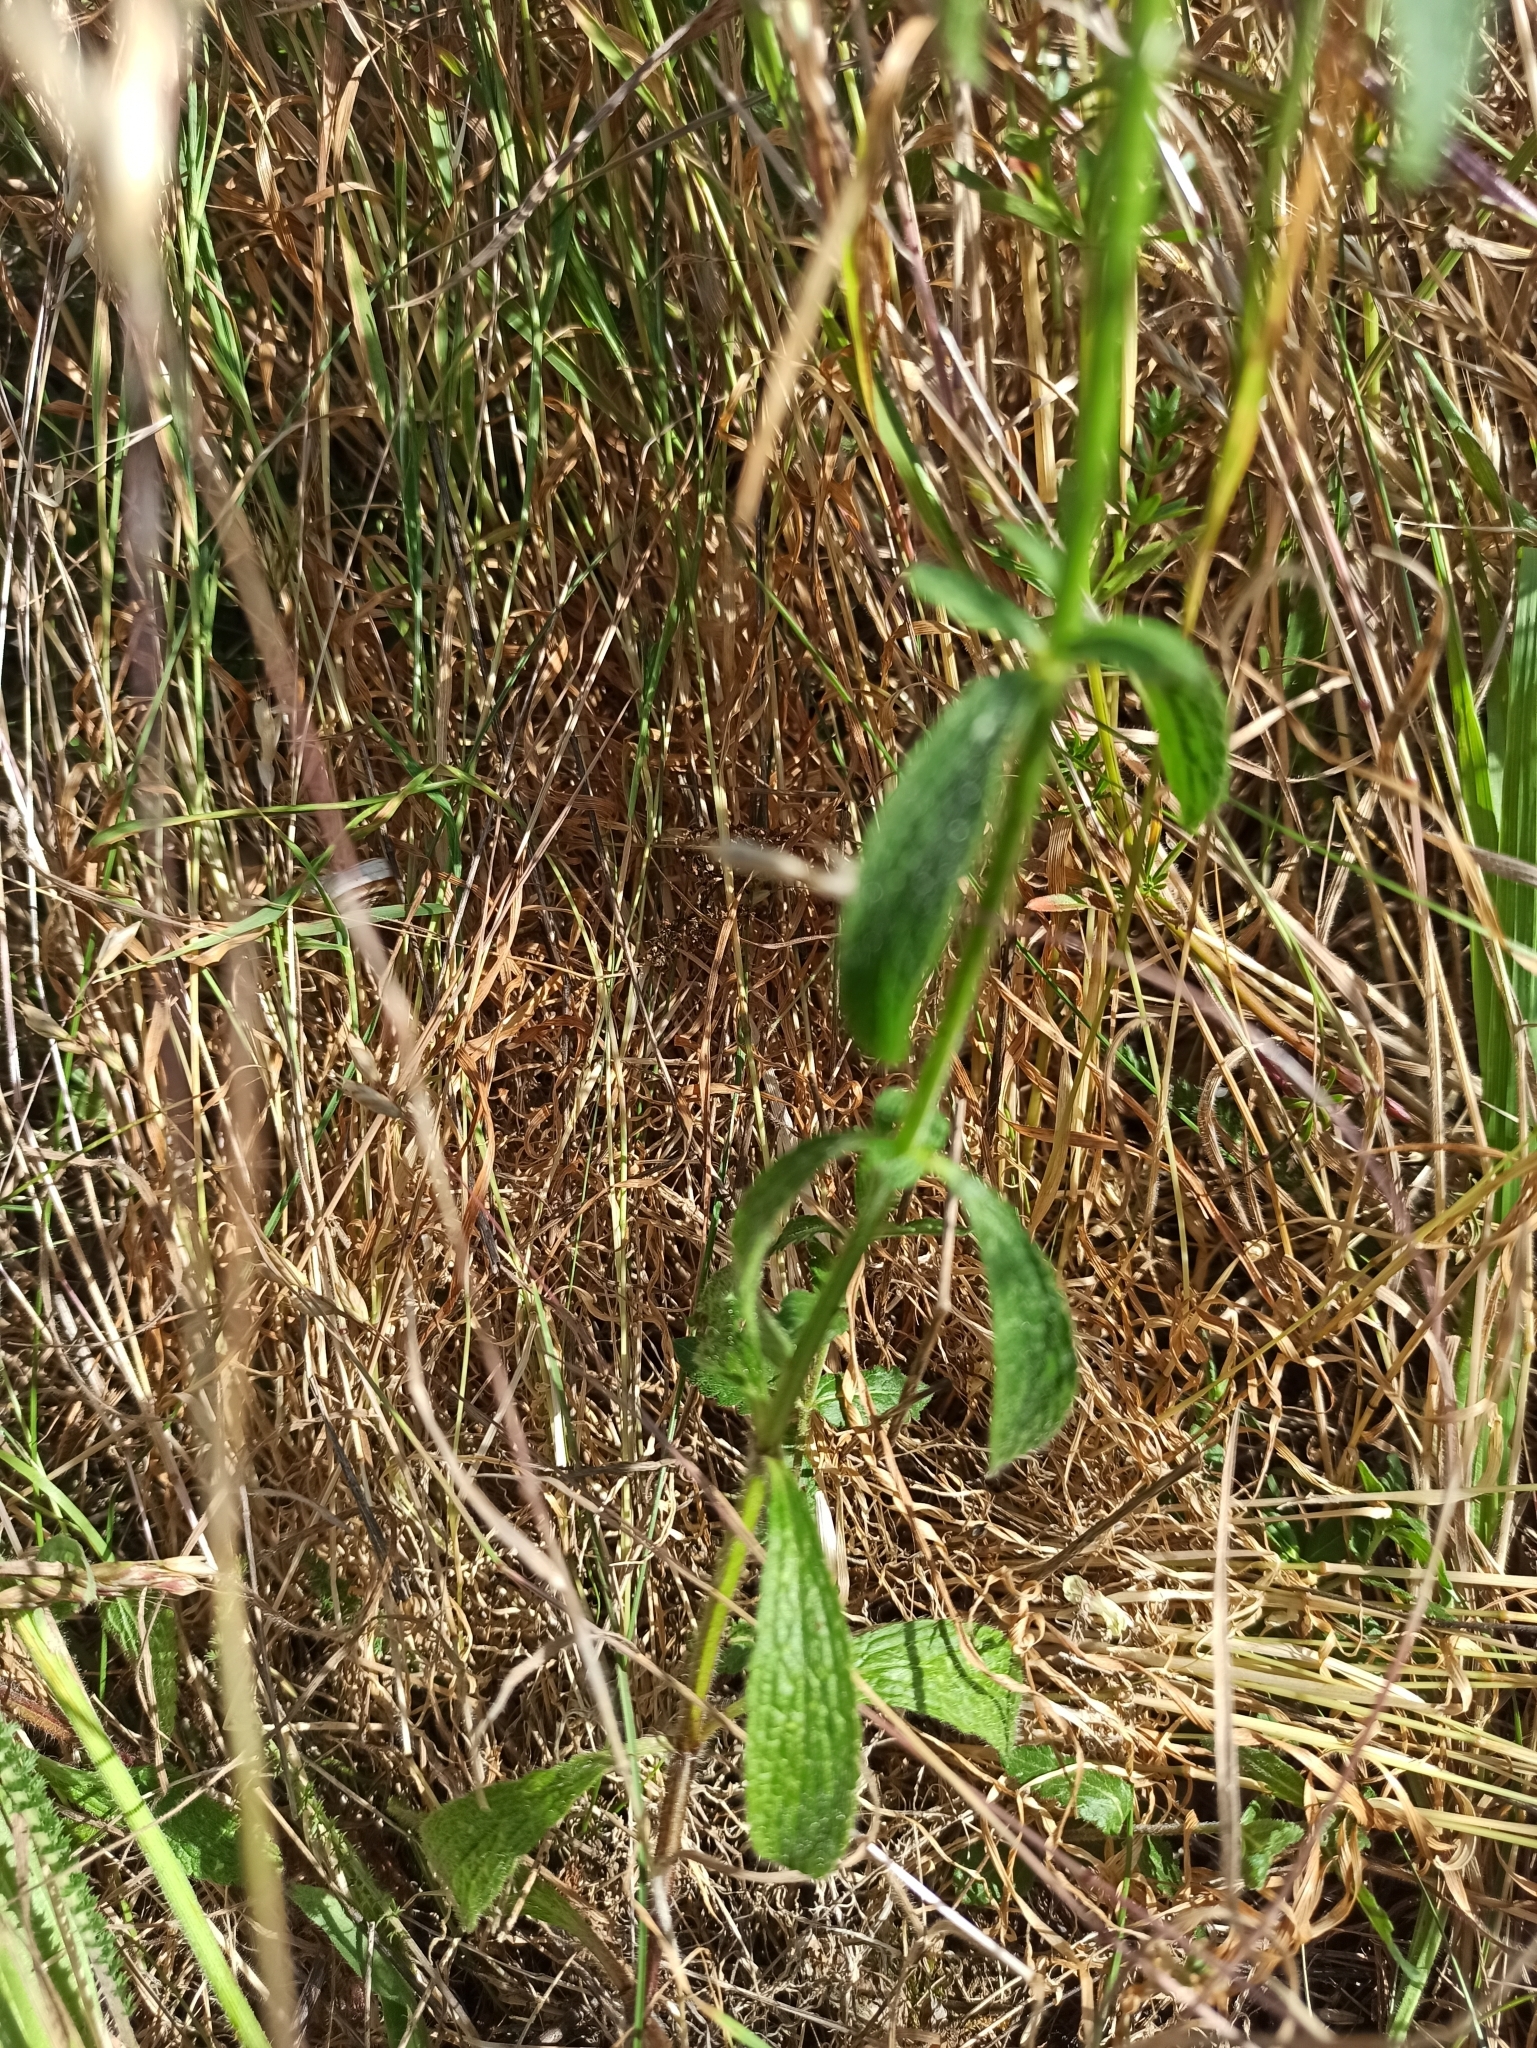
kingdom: Plantae
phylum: Tracheophyta
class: Magnoliopsida
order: Lamiales
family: Lamiaceae
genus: Stachys
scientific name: Stachys recta
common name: Perennial yellow-woundwort
